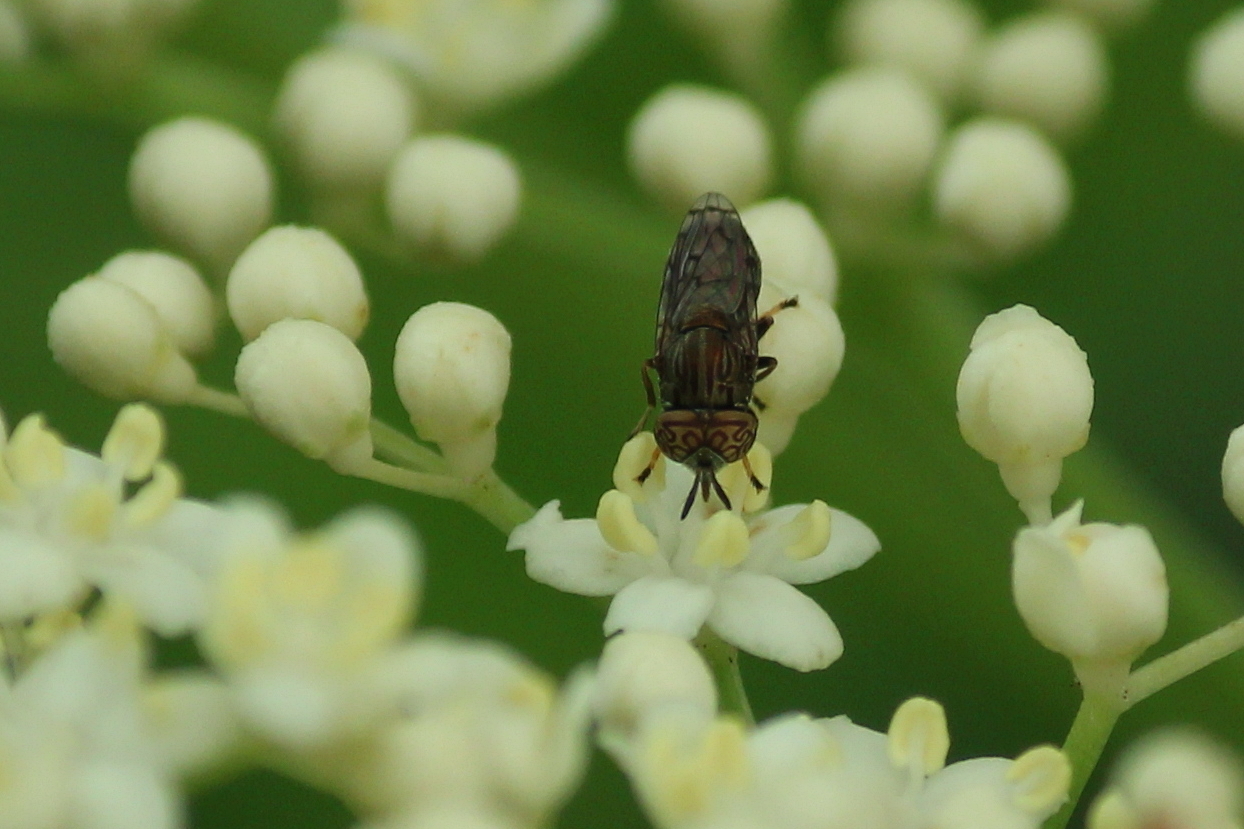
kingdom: Animalia
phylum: Arthropoda
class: Insecta
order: Diptera
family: Syrphidae
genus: Orthonevra
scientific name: Orthonevra nitida
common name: Wavy mucksucker
